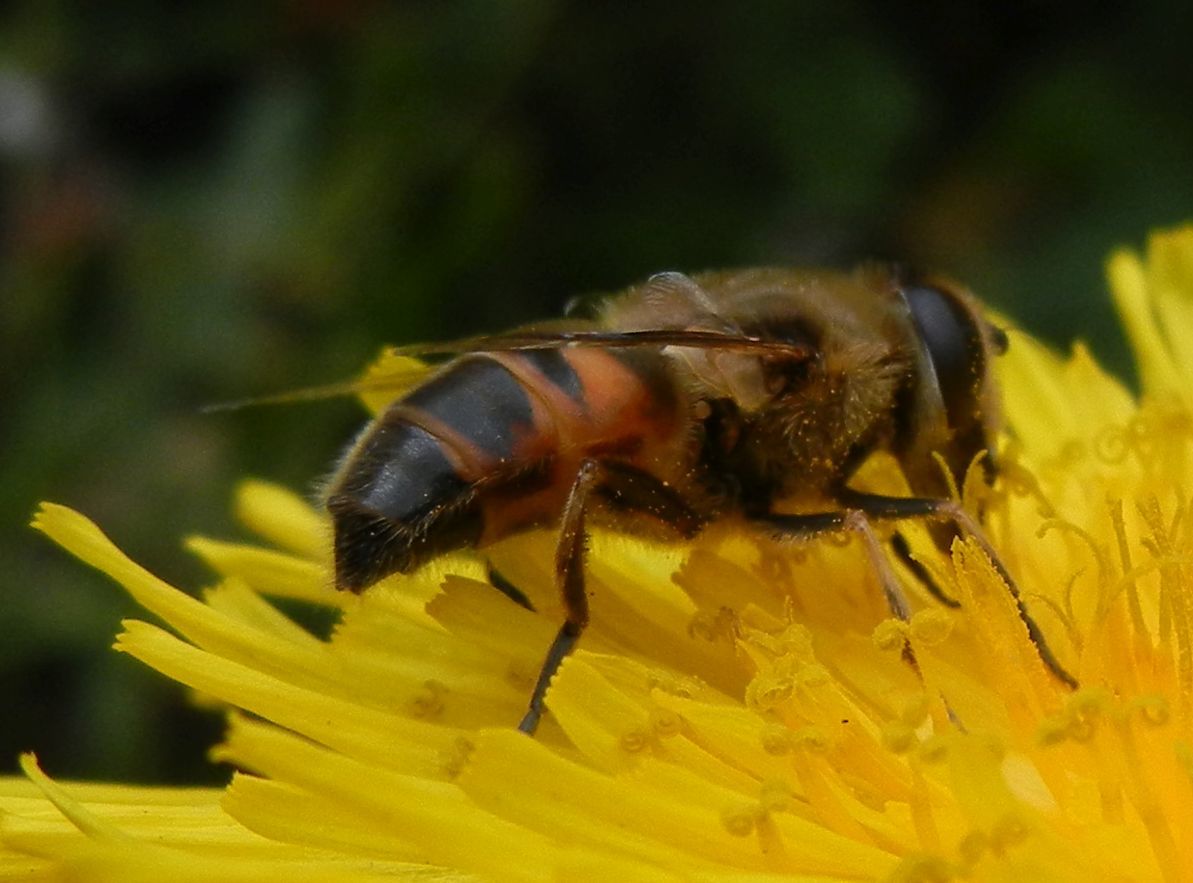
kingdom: Animalia
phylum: Arthropoda
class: Insecta
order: Diptera
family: Syrphidae
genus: Eristalis
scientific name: Eristalis tenax
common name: Drone fly
